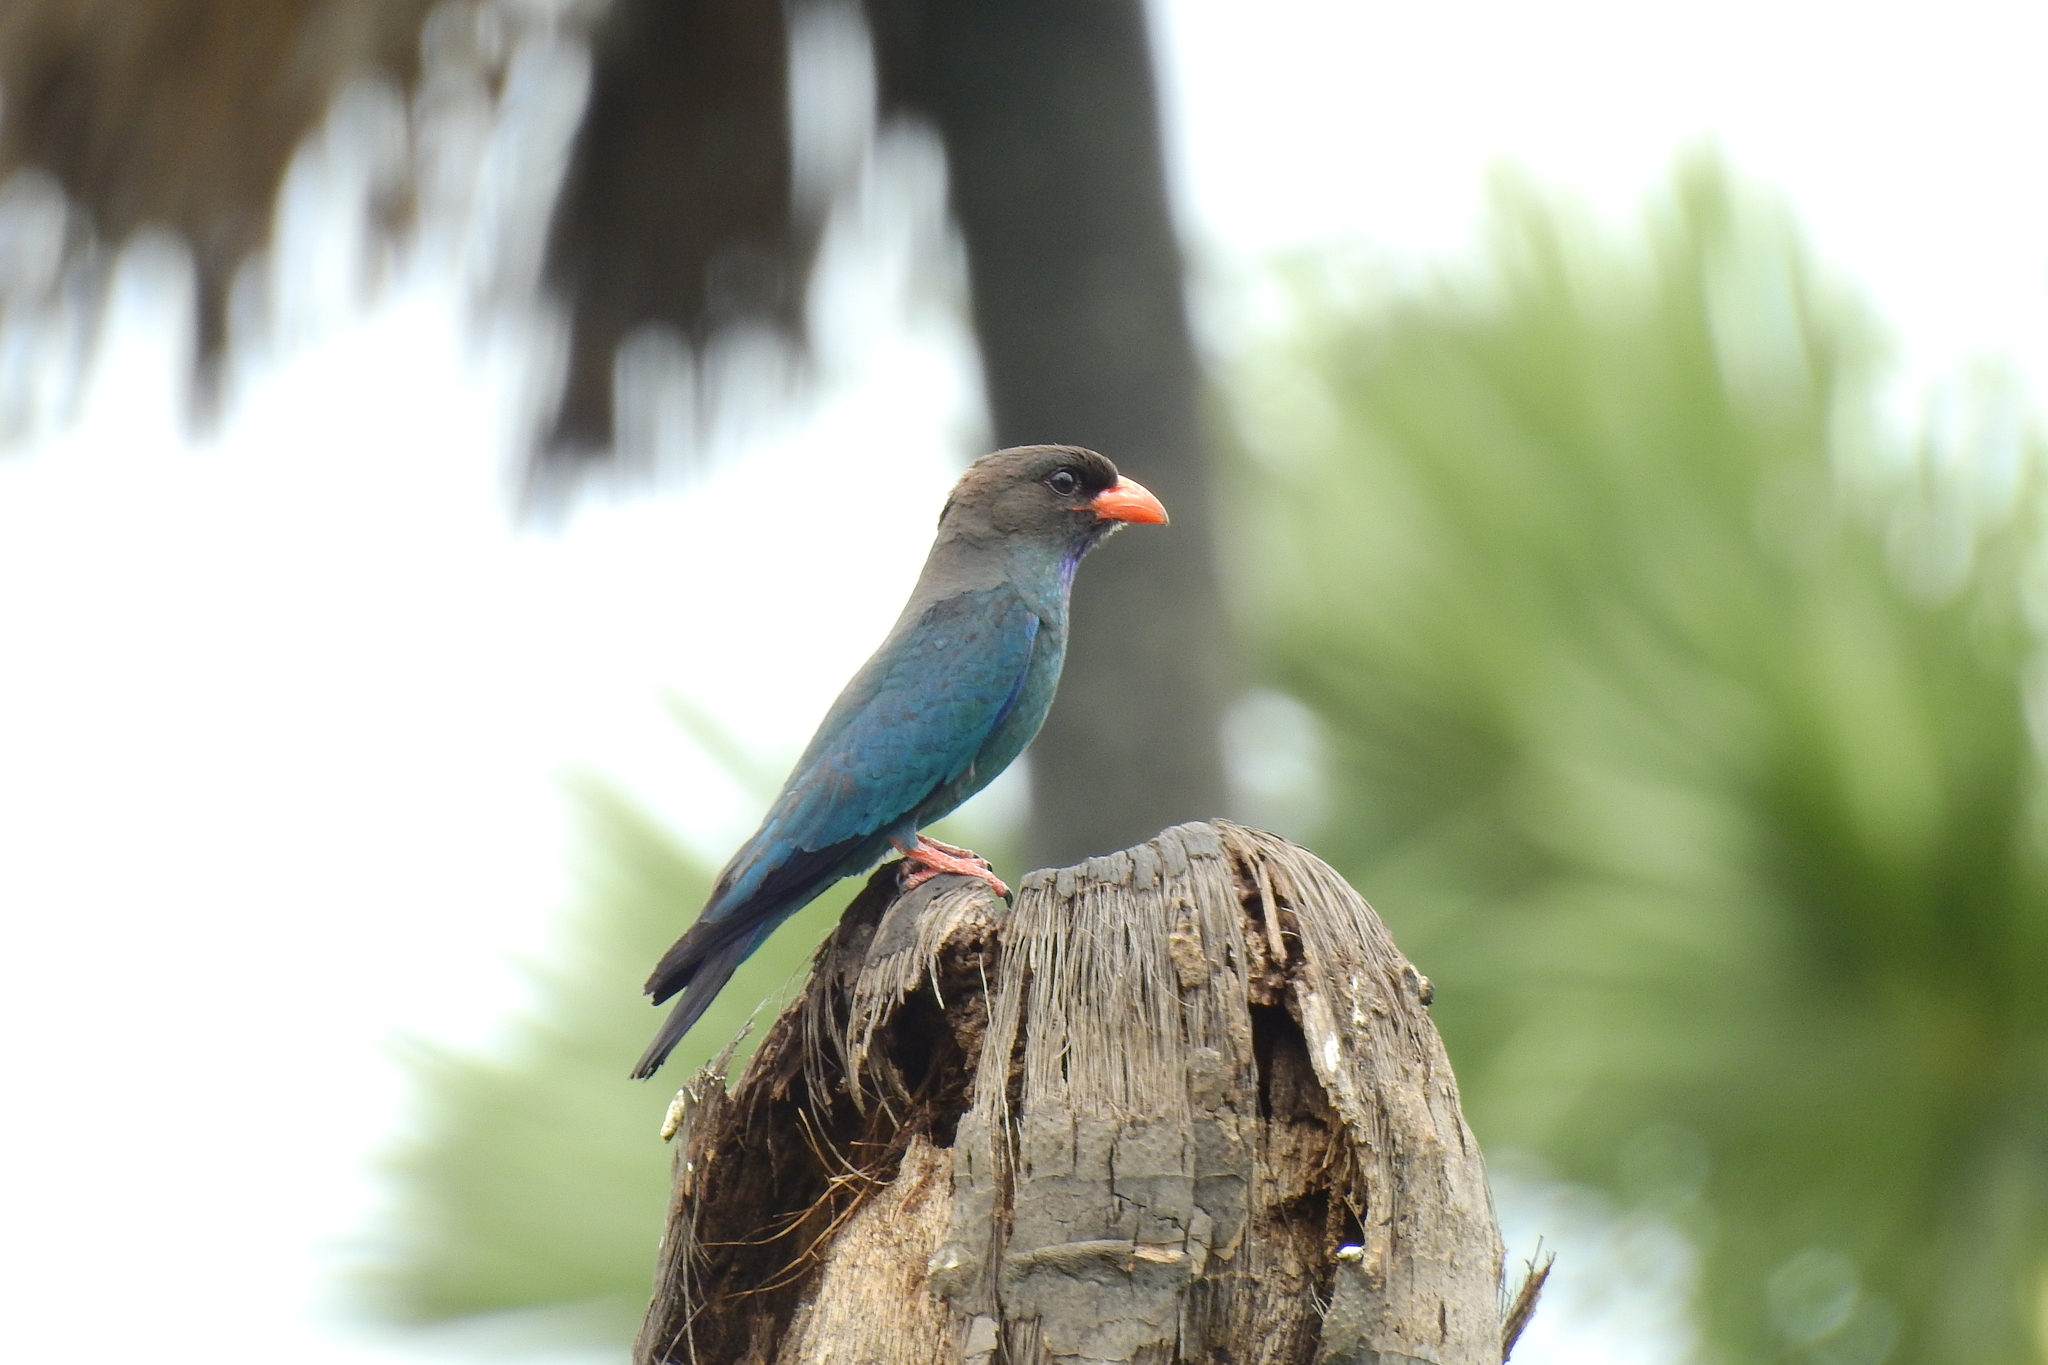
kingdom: Animalia
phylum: Chordata
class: Aves
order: Coraciiformes
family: Coraciidae
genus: Eurystomus
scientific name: Eurystomus orientalis
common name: Oriental dollarbird
